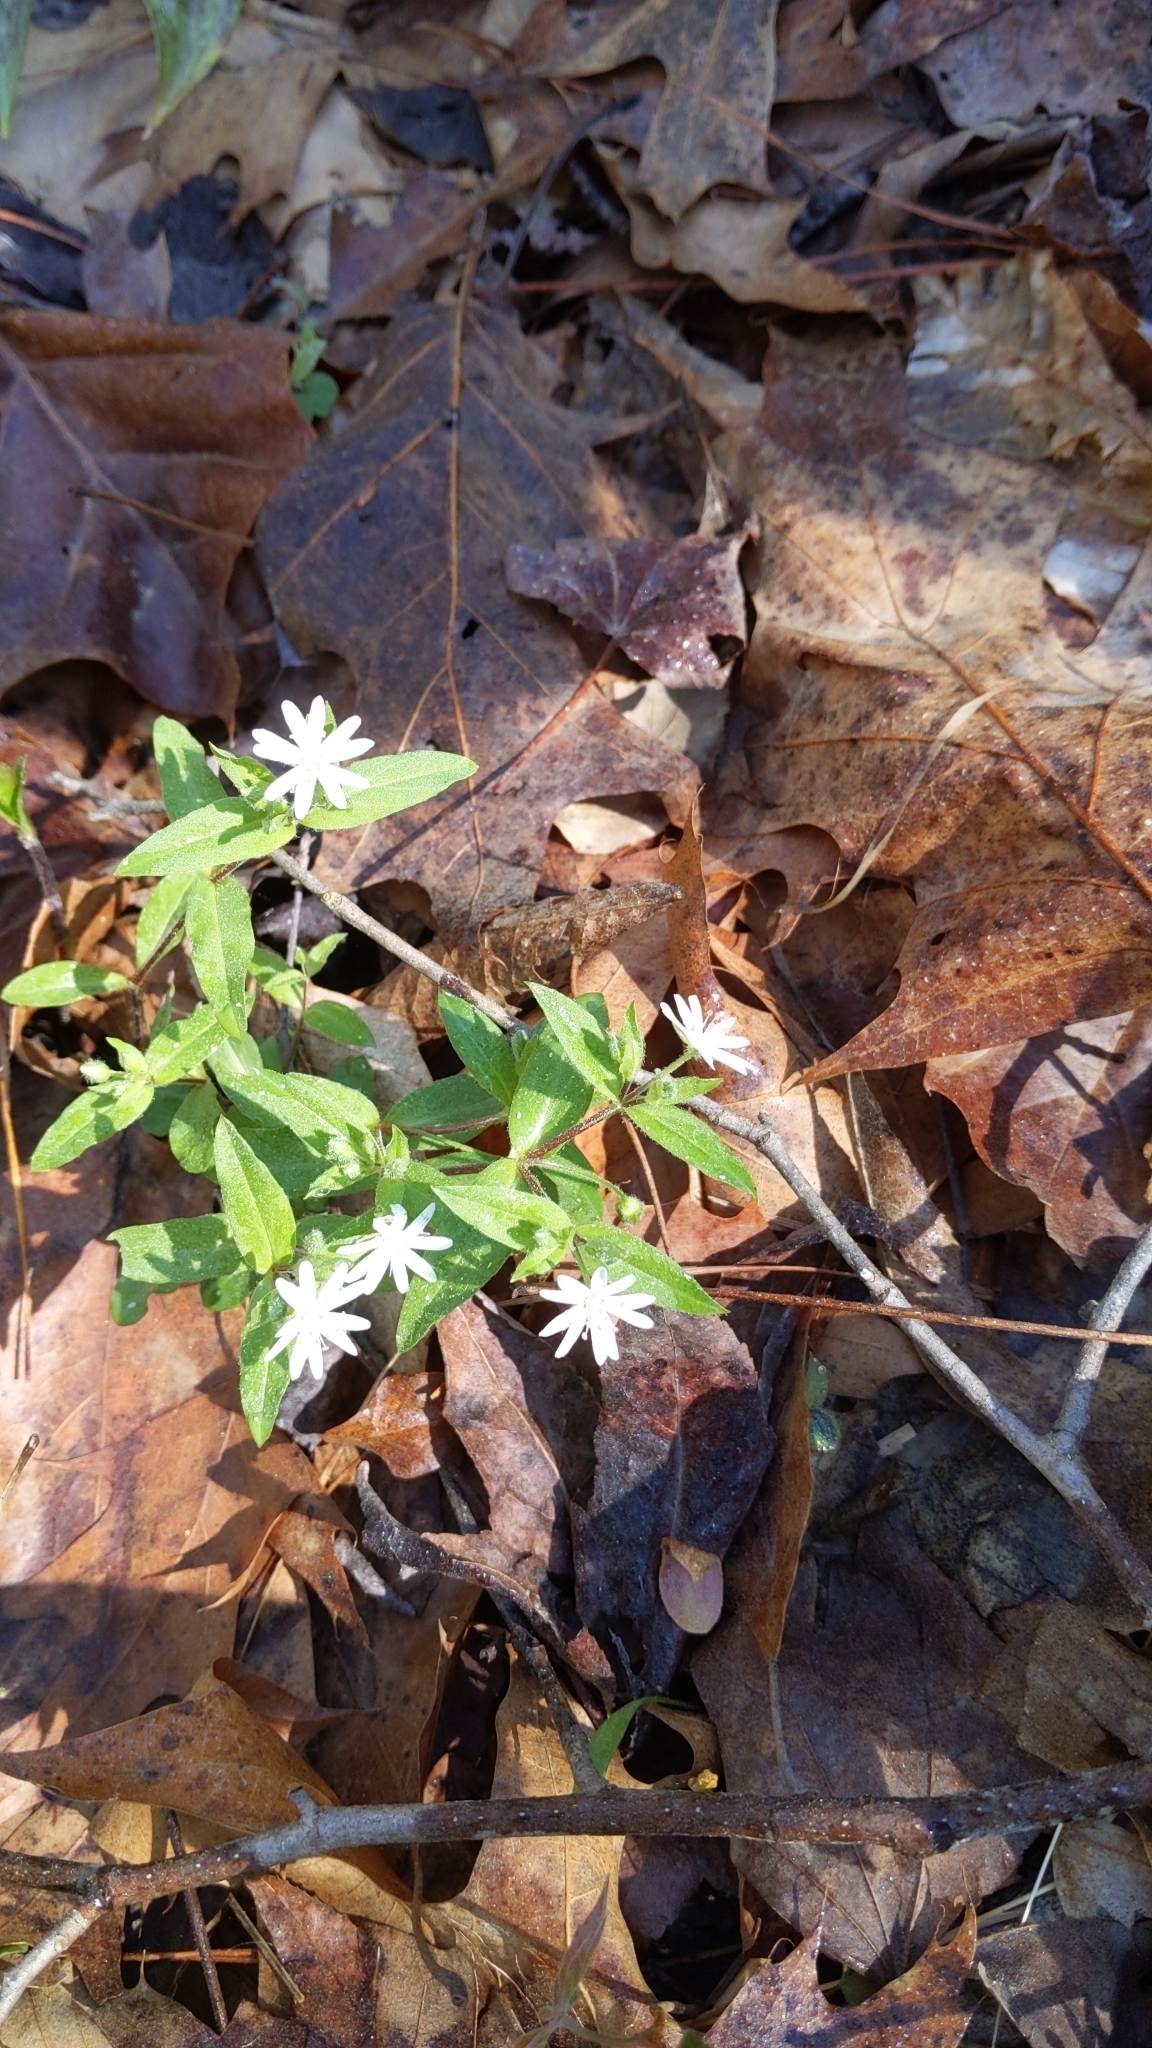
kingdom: Plantae
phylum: Tracheophyta
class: Magnoliopsida
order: Caryophyllales
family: Caryophyllaceae
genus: Stellaria
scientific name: Stellaria pubera
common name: Star chickweed
